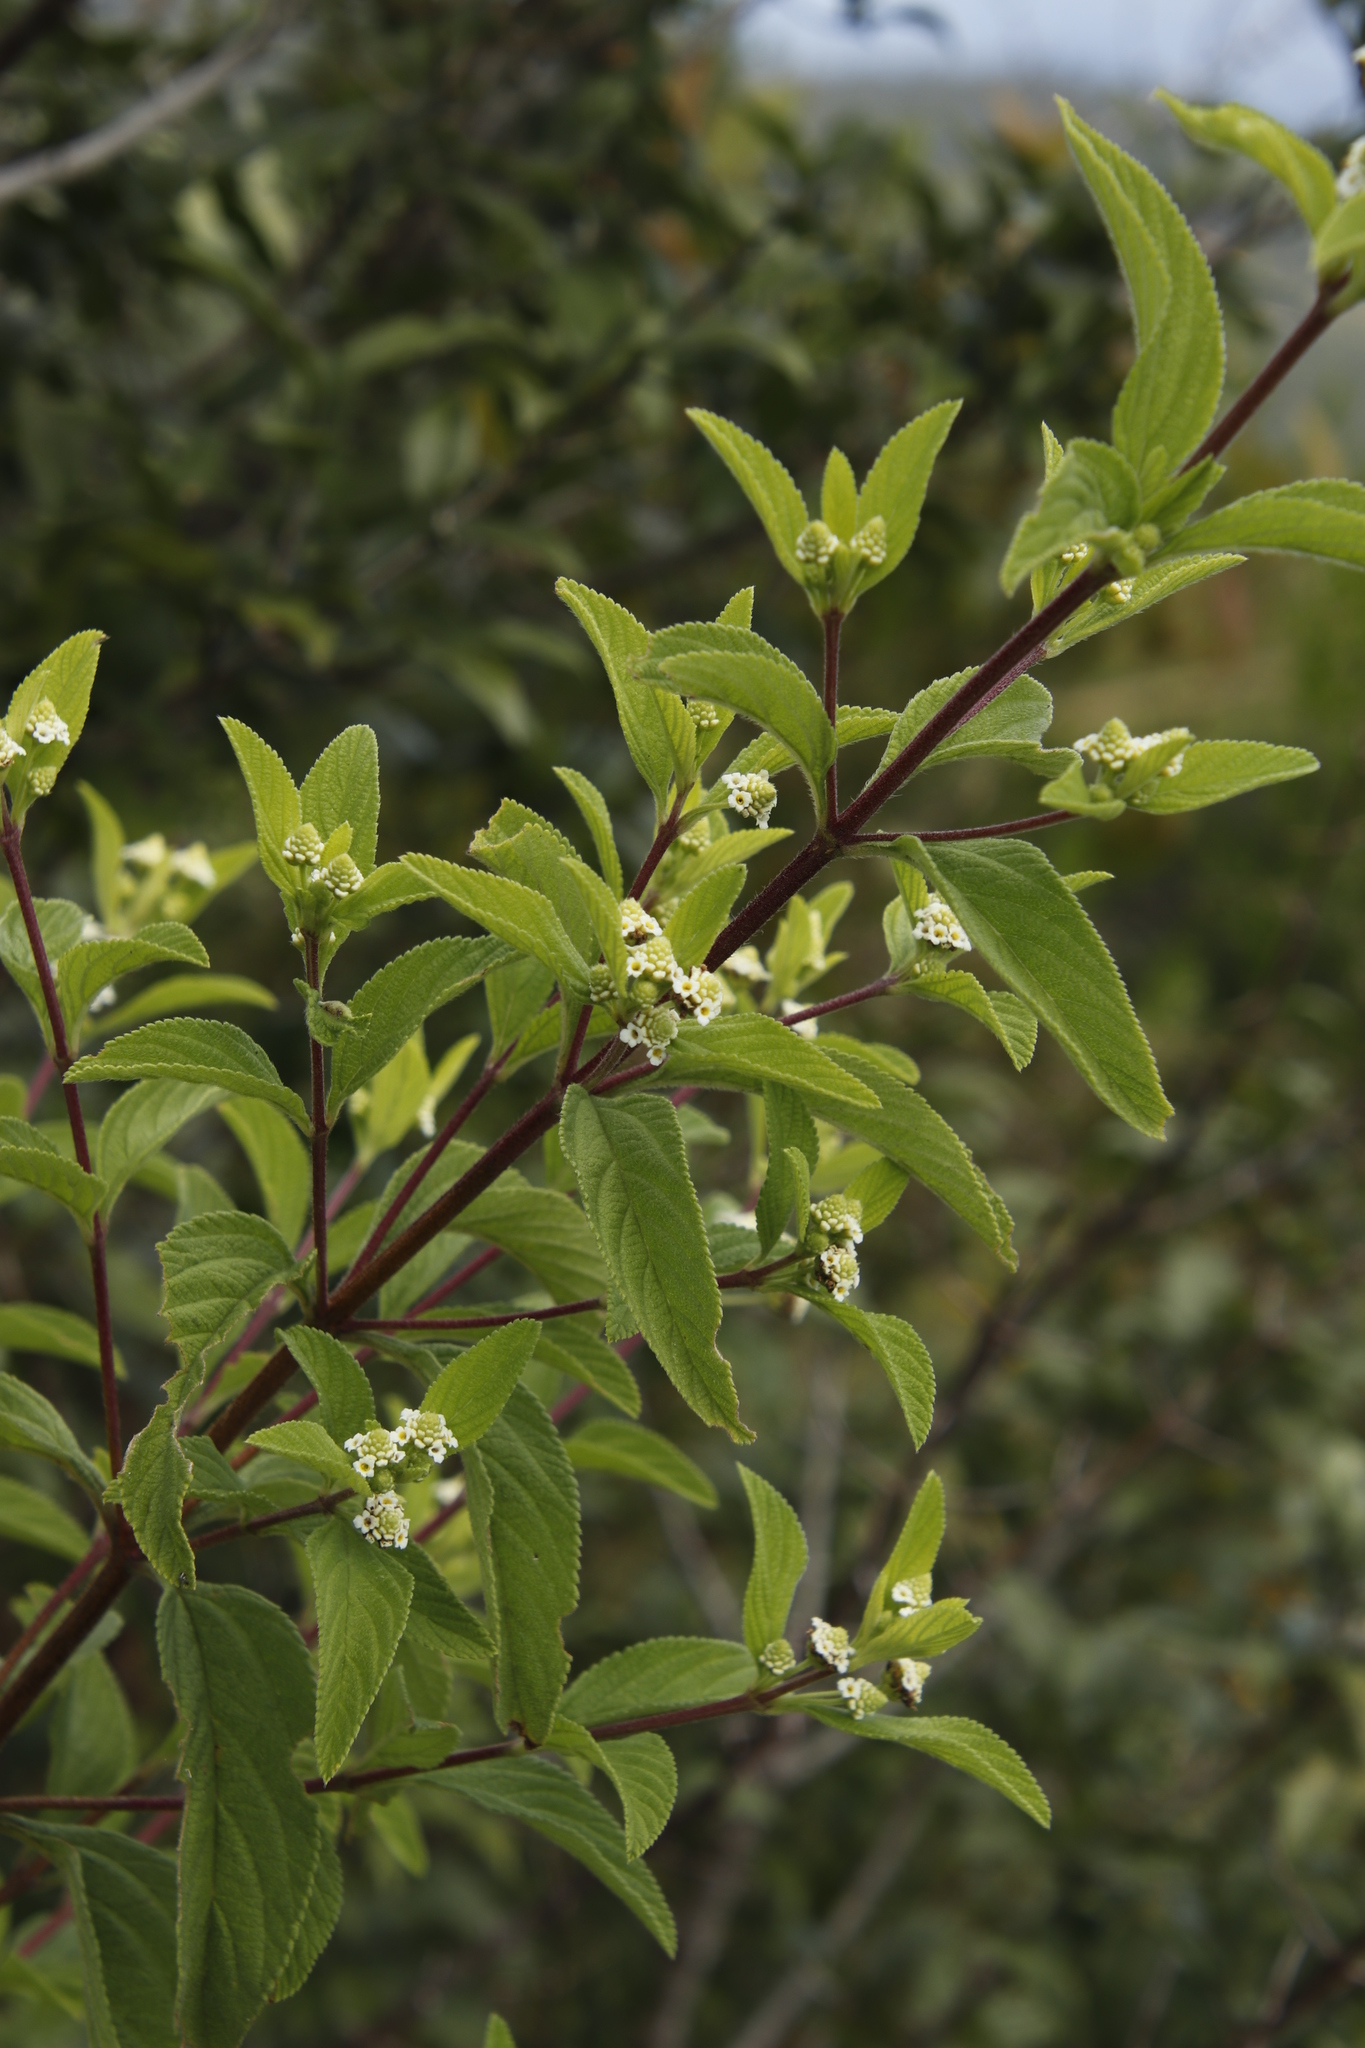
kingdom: Plantae
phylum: Tracheophyta
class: Magnoliopsida
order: Lamiales
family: Verbenaceae
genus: Lippia
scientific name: Lippia javanica
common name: Lemonbush
